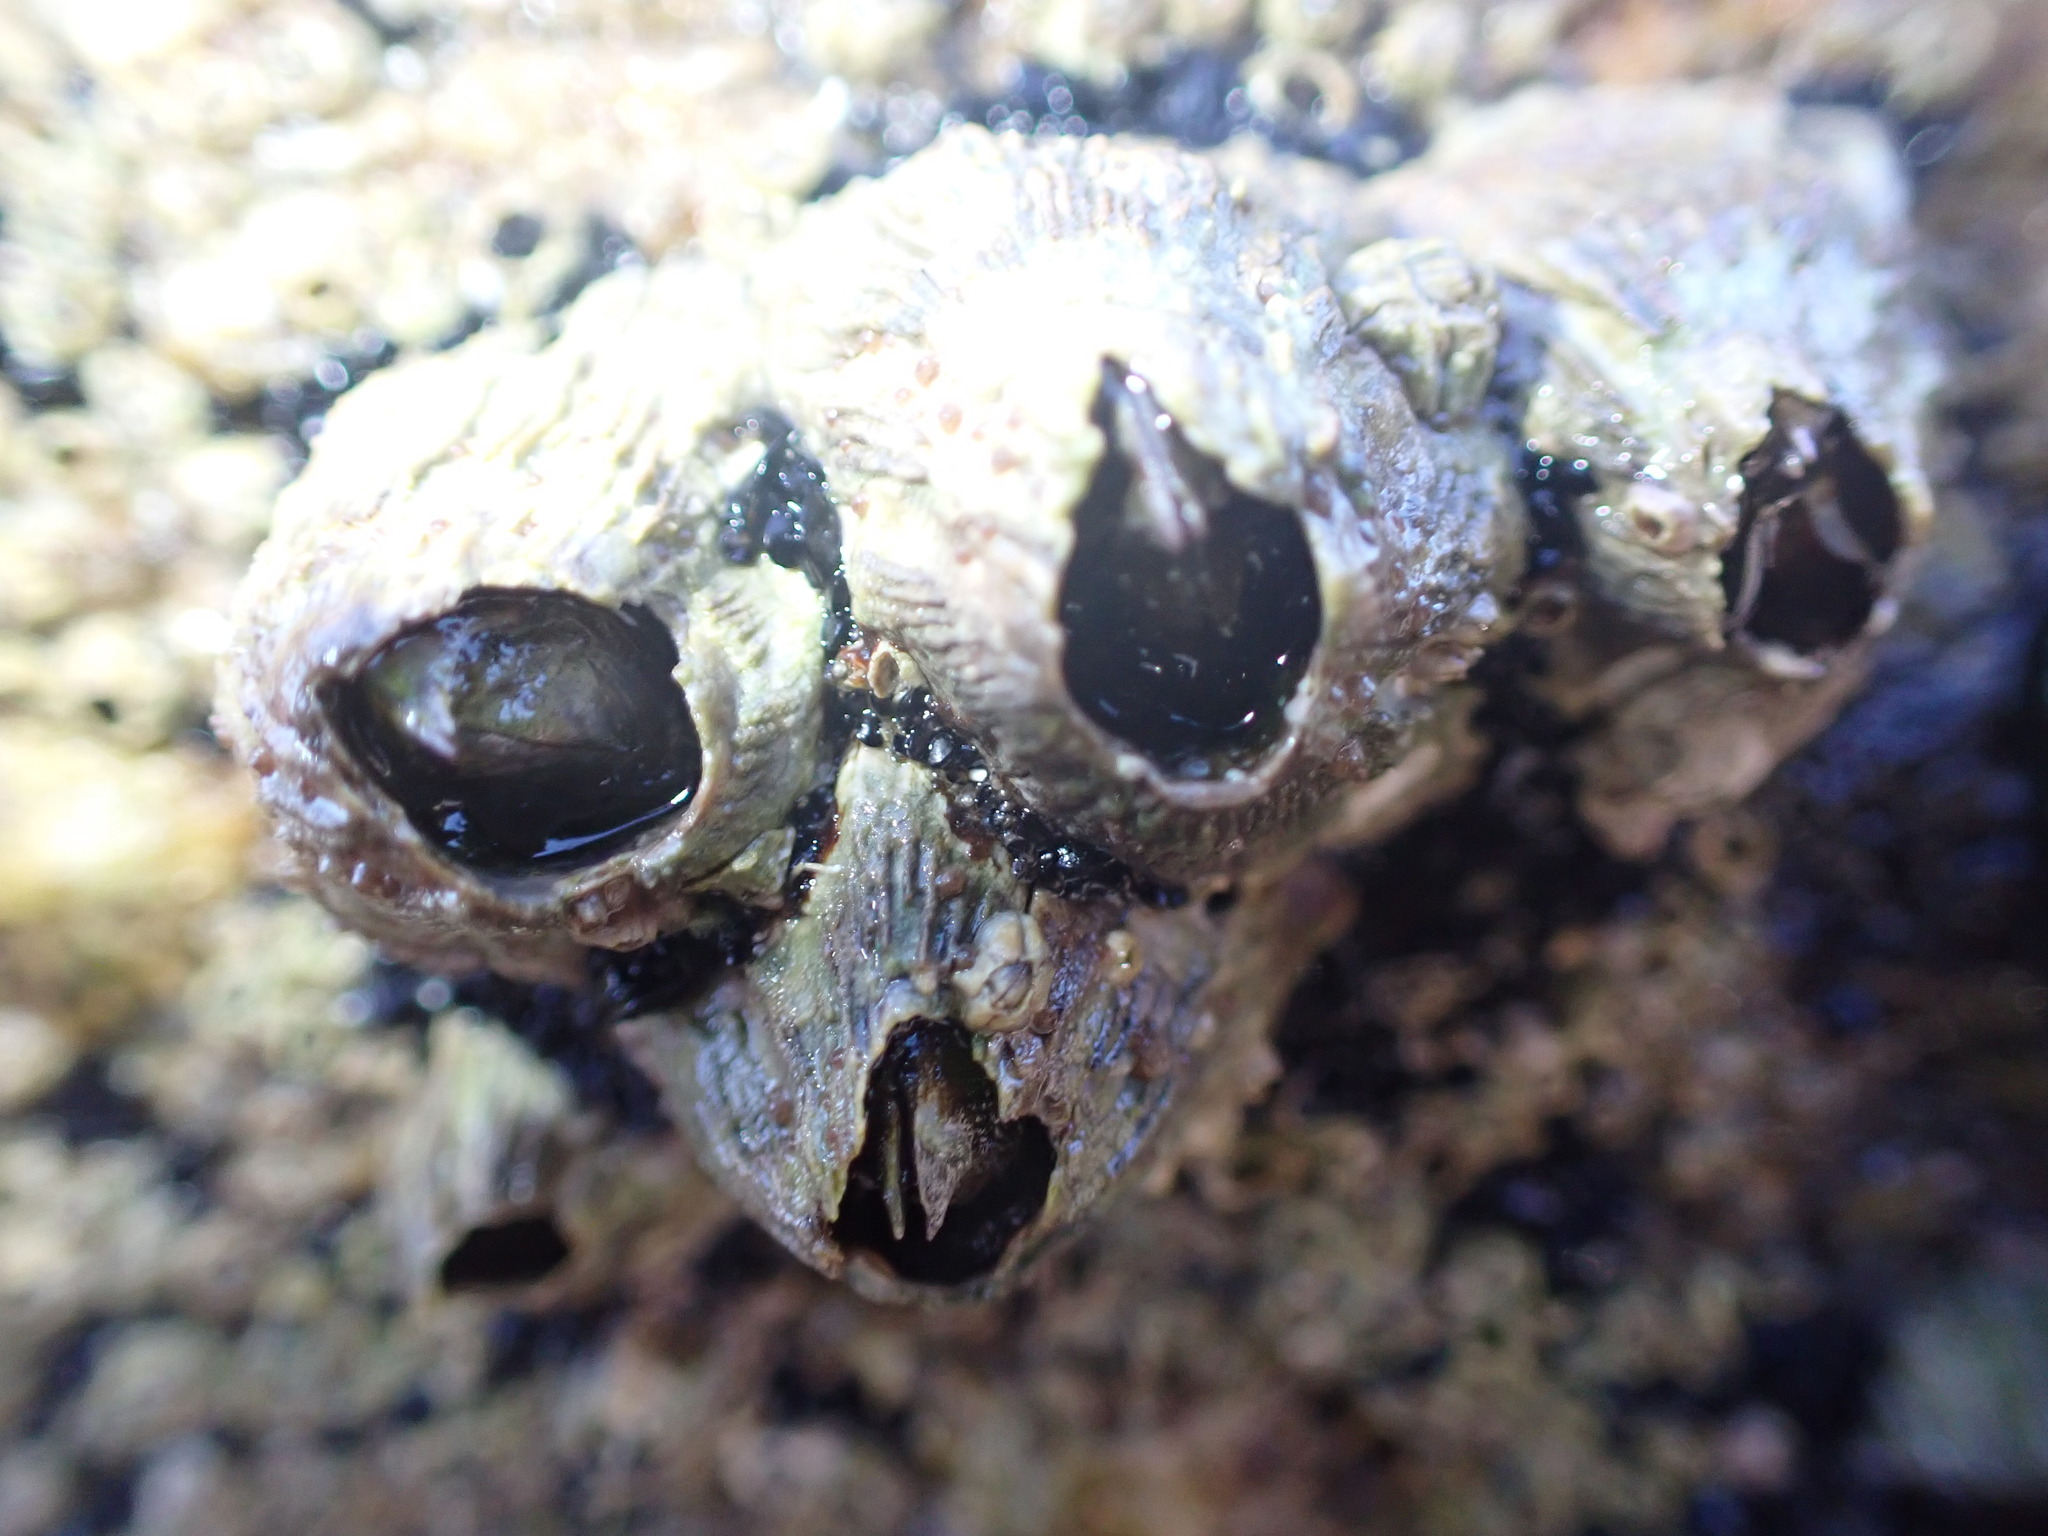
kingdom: Animalia
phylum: Arthropoda
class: Maxillopoda
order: Sessilia
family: Balanidae
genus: Perforatus
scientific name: Perforatus perforatus
